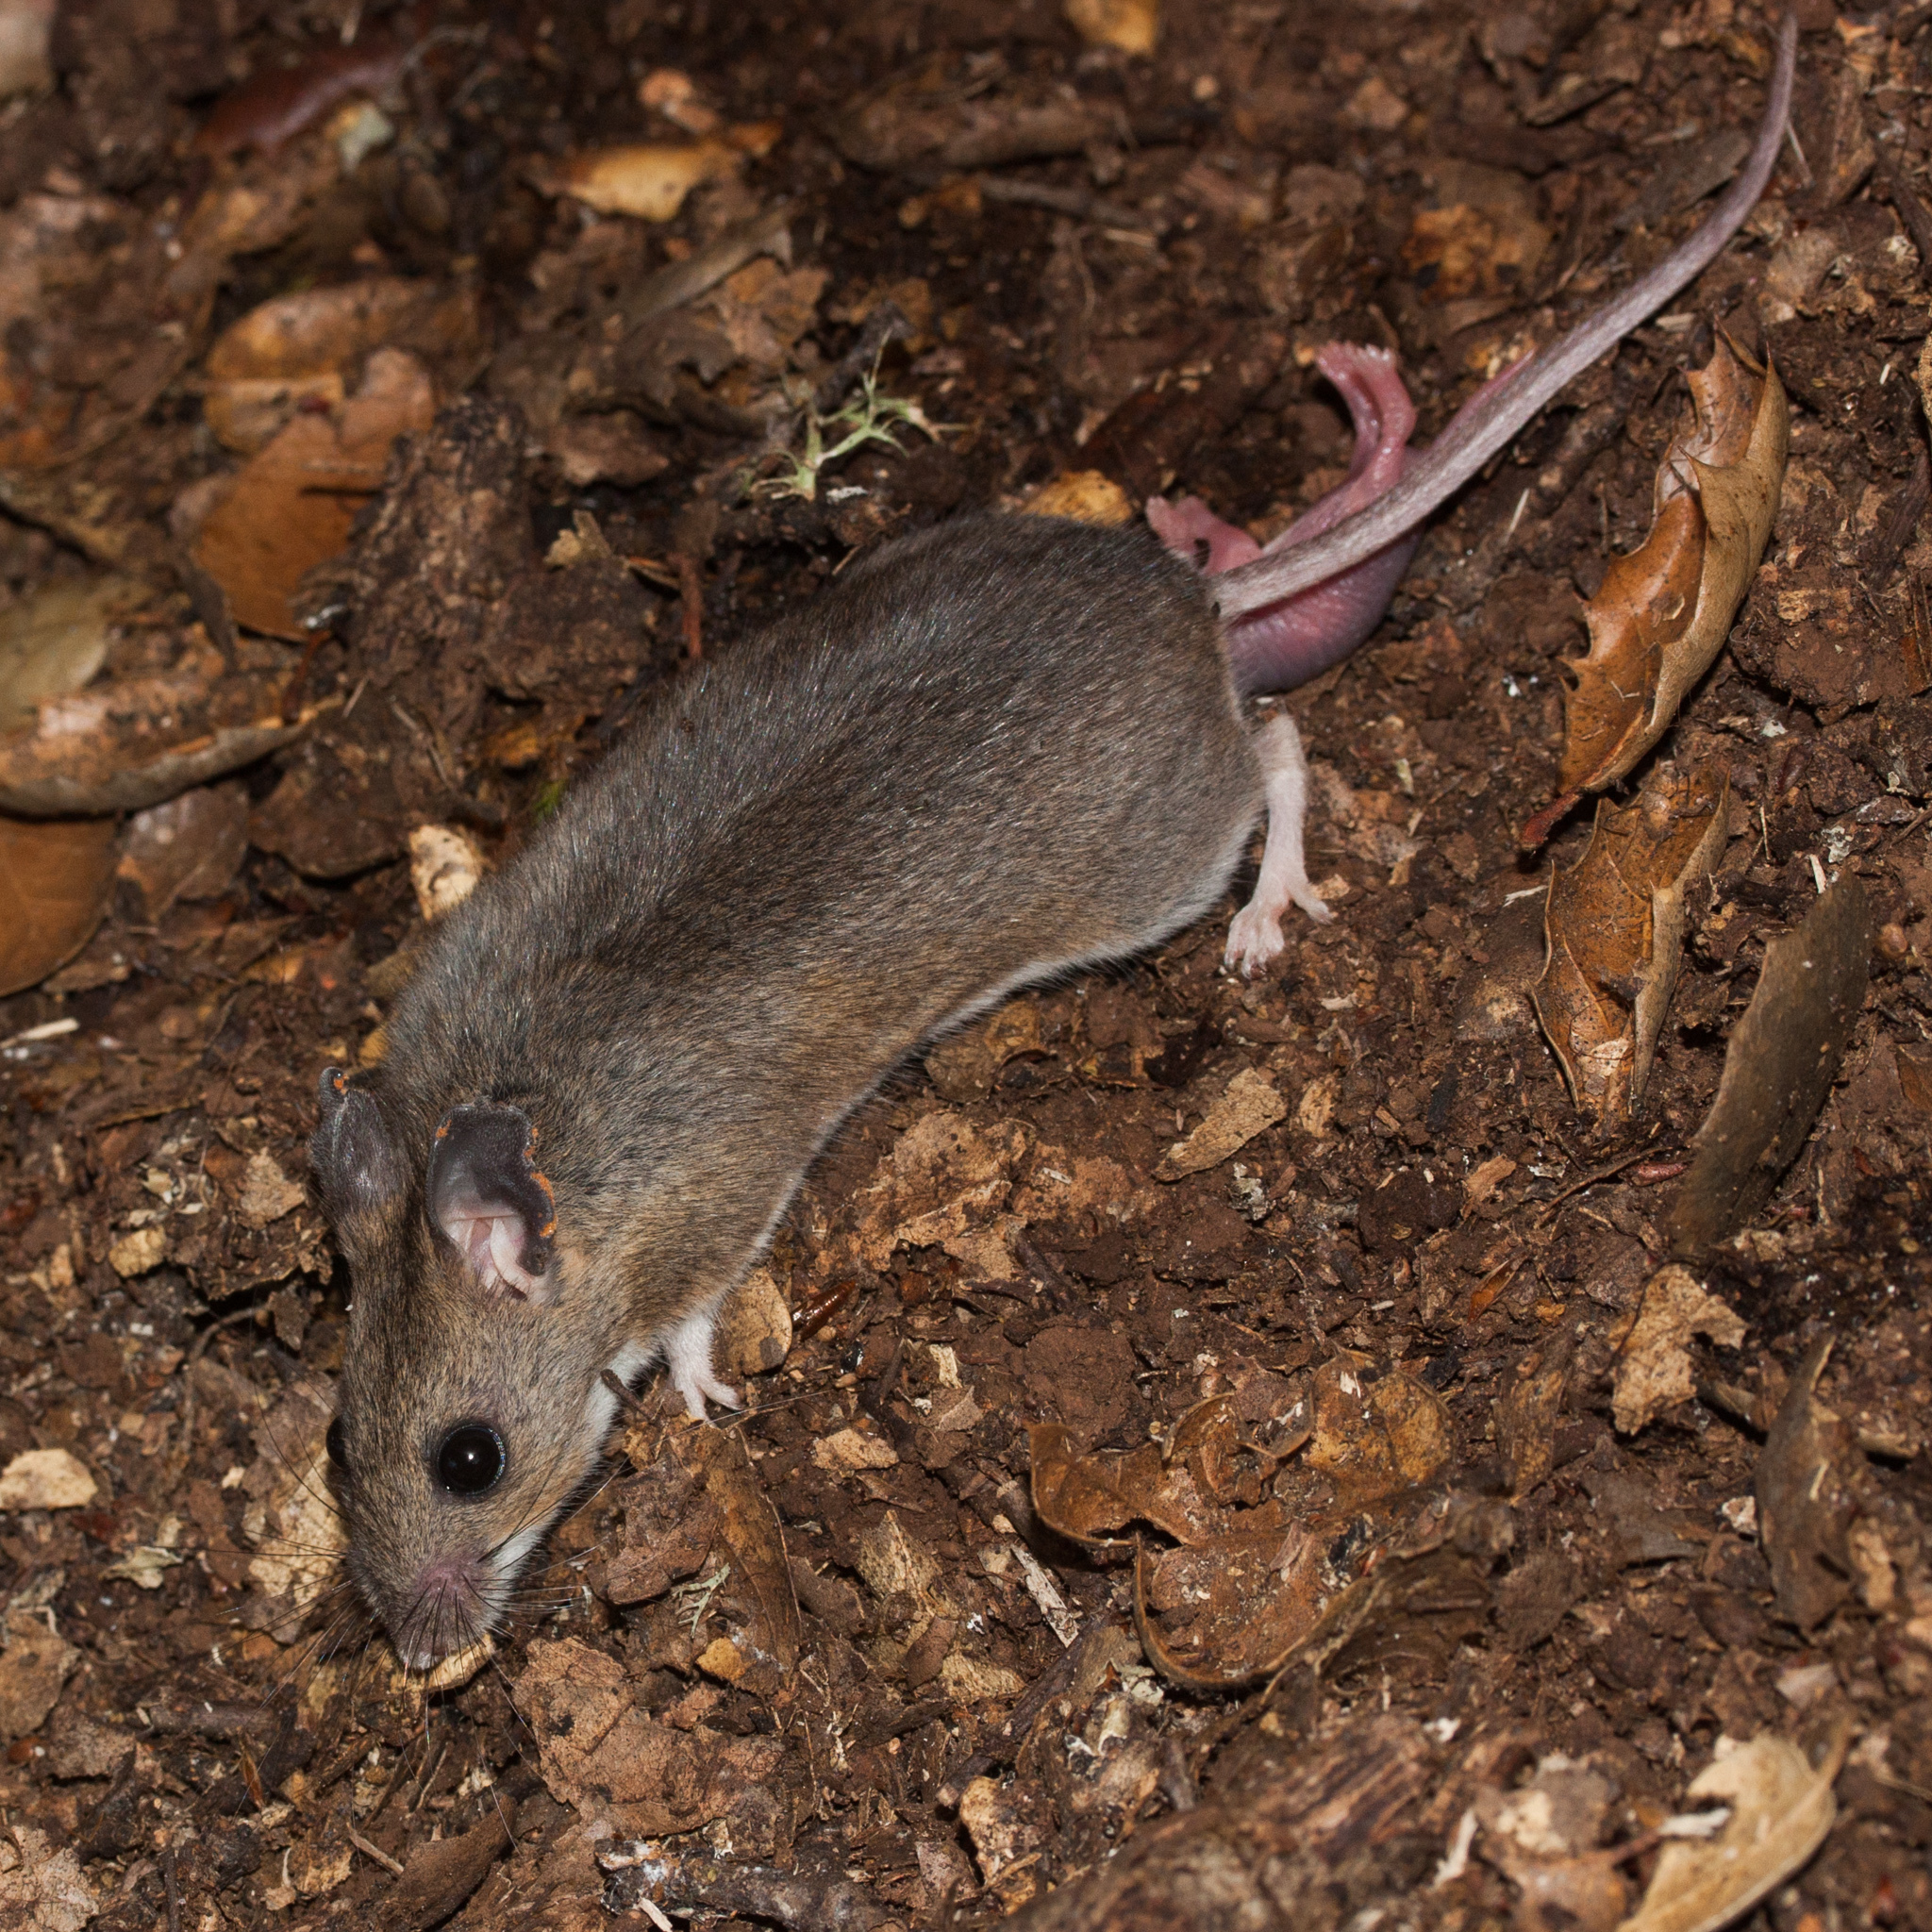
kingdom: Animalia
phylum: Chordata
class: Mammalia
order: Rodentia
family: Cricetidae
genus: Peromyscus
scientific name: Peromyscus maniculatus
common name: Deer mouse
